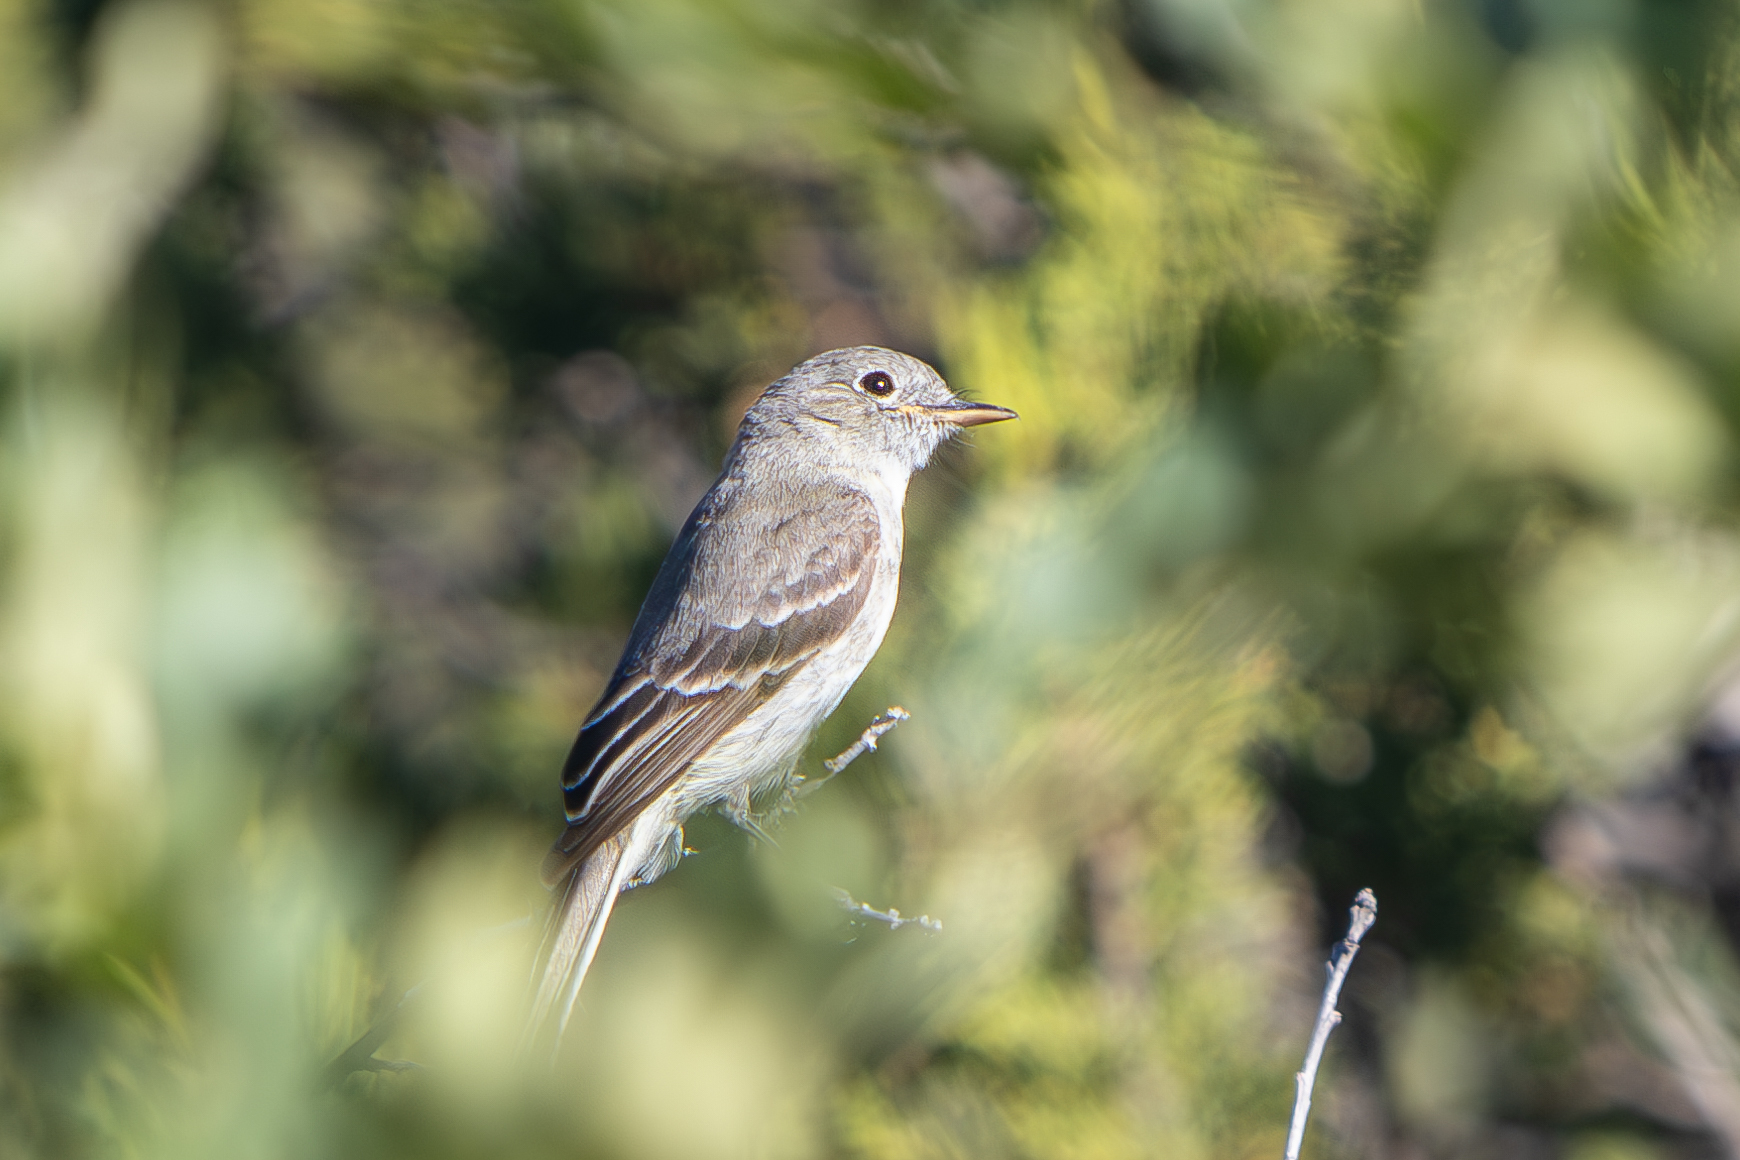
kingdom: Animalia
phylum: Chordata
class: Aves
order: Passeriformes
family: Tyrannidae
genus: Empidonax
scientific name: Empidonax wrightii
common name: Gray flycatcher
